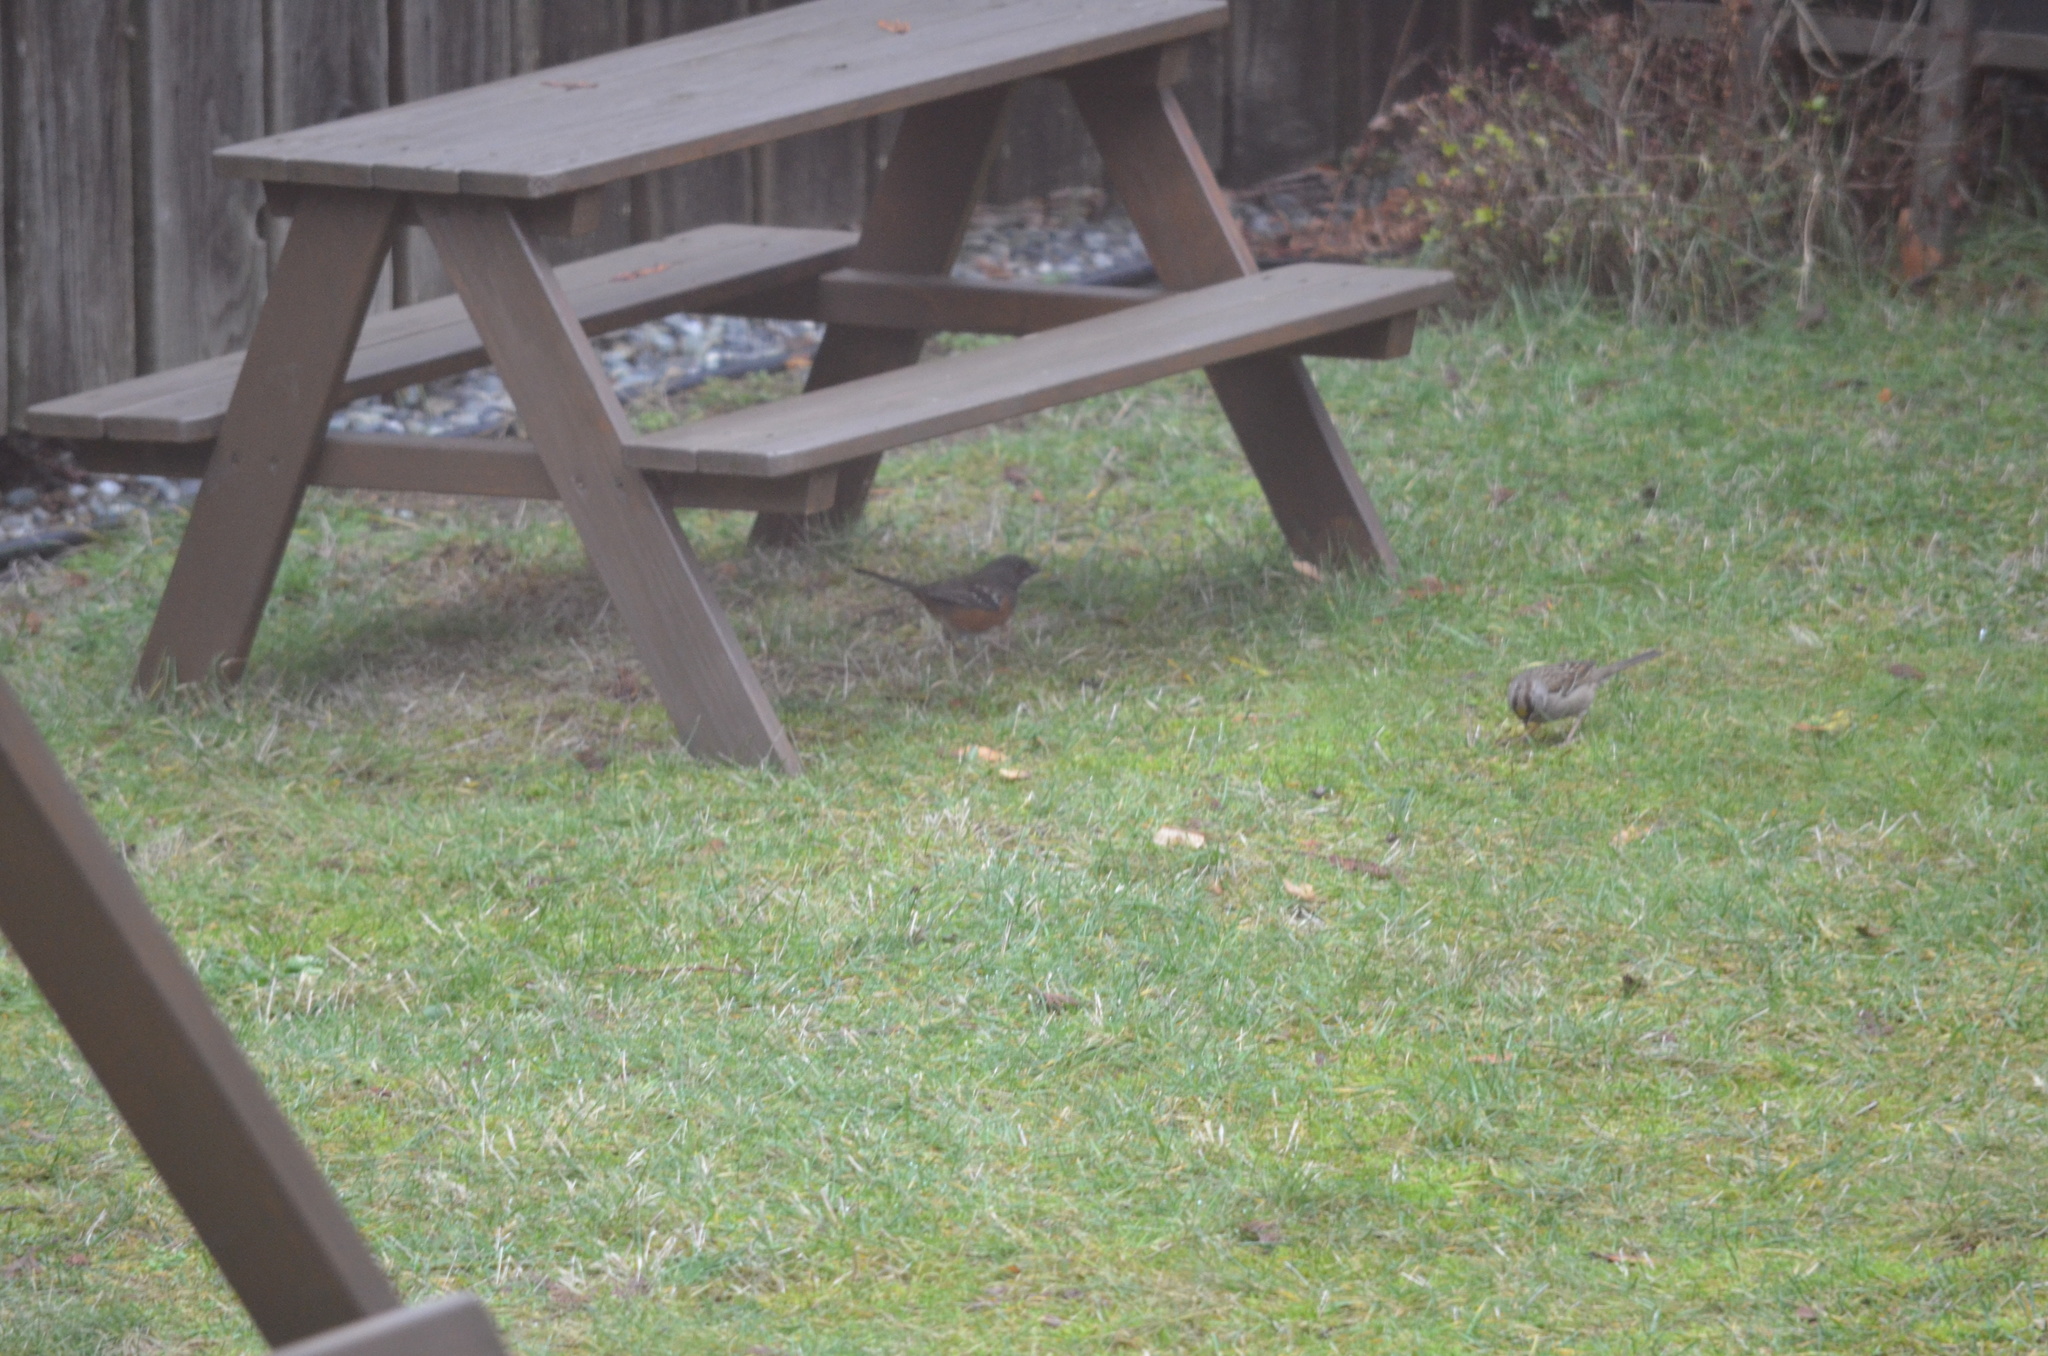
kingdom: Animalia
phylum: Chordata
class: Aves
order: Passeriformes
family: Passerellidae
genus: Pipilo
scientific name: Pipilo maculatus
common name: Spotted towhee
